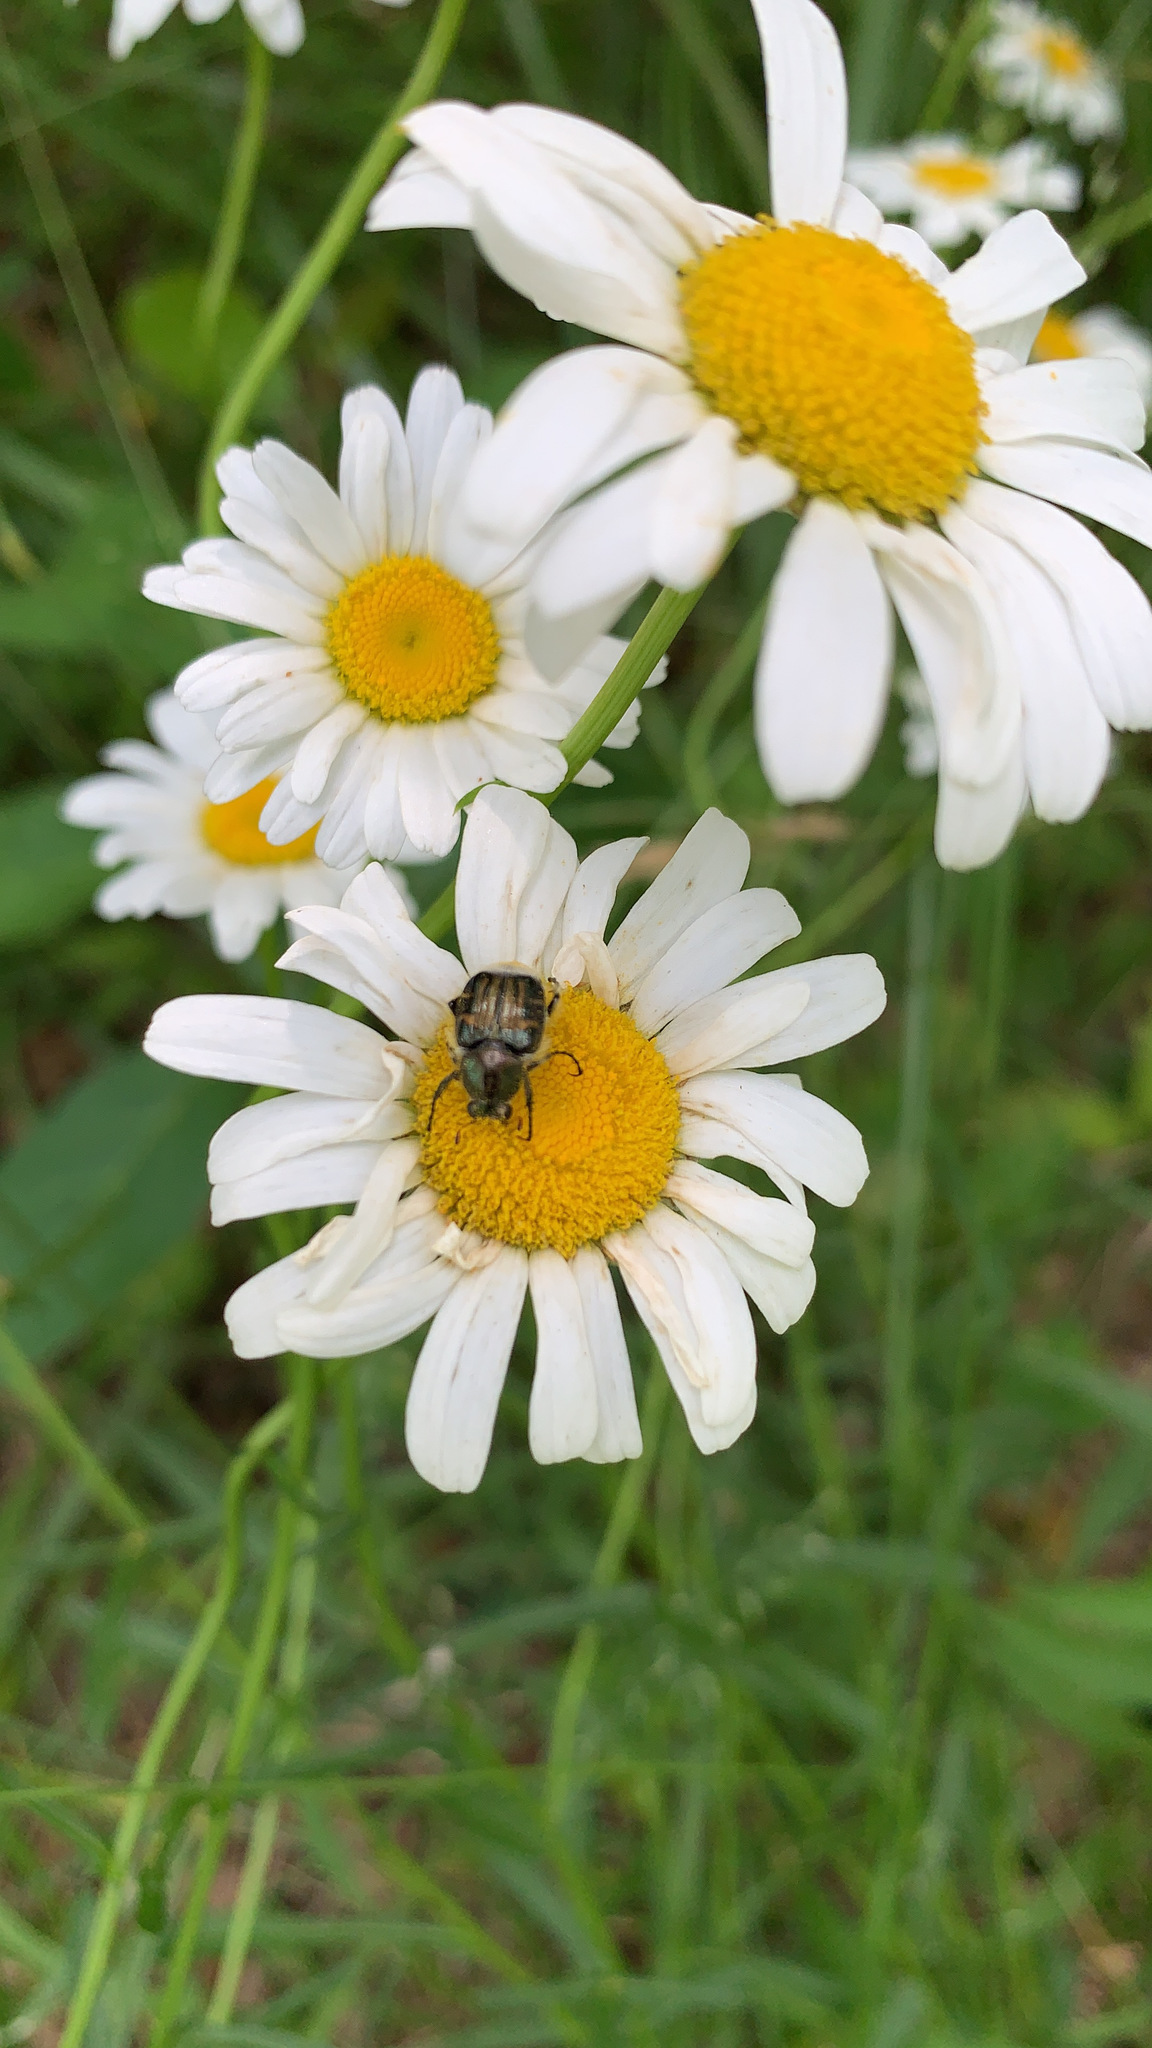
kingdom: Animalia
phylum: Arthropoda
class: Insecta
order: Coleoptera
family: Scarabaeidae
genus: Trichiotinus
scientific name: Trichiotinus piger
